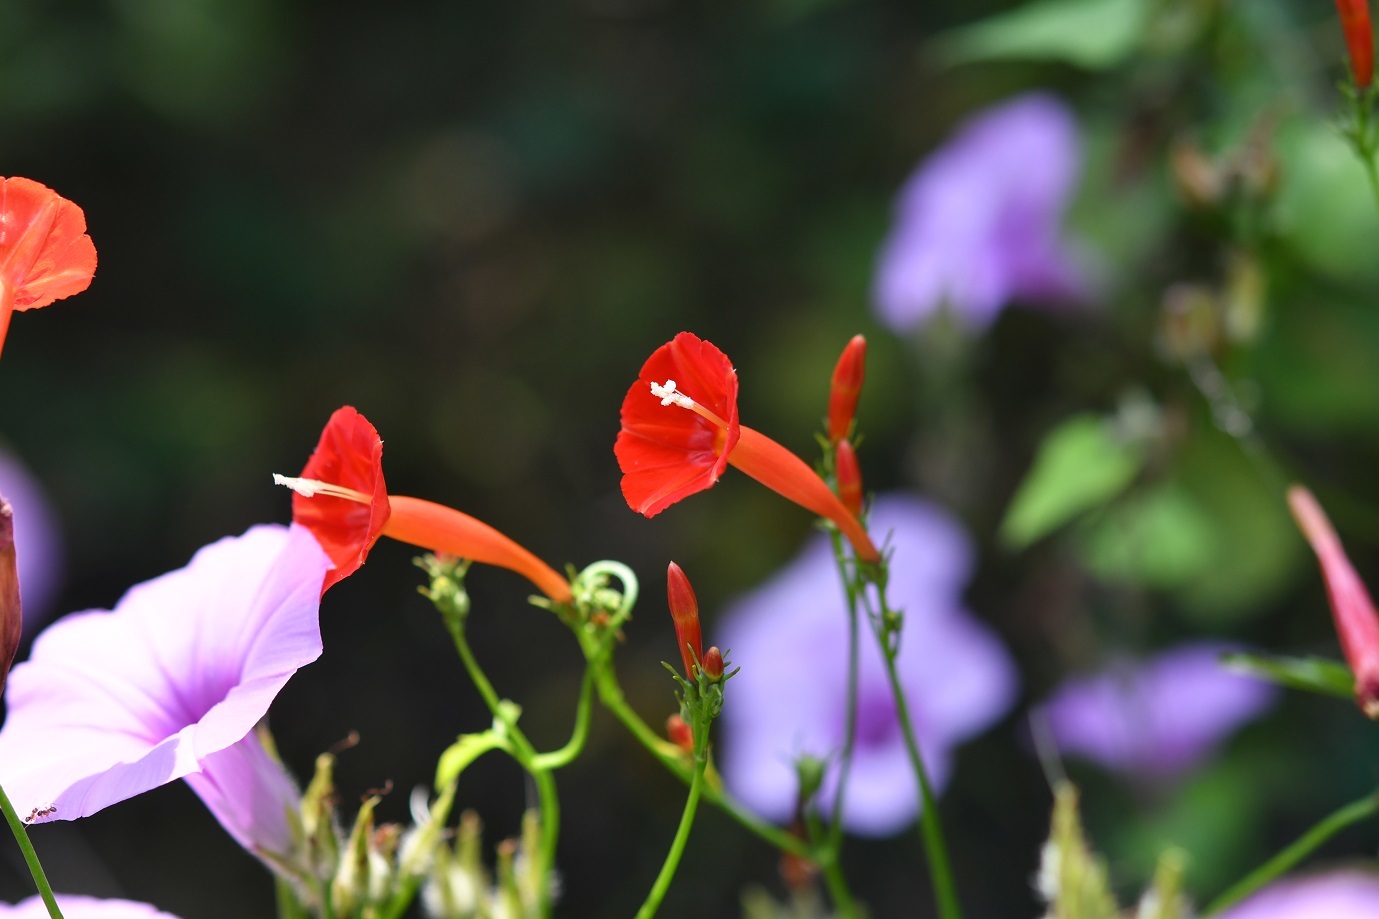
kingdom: Plantae
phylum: Tracheophyta
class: Magnoliopsida
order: Solanales
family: Convolvulaceae
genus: Ipomoea
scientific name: Ipomoea hederifolia
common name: Ivy-leaf morning-glory
